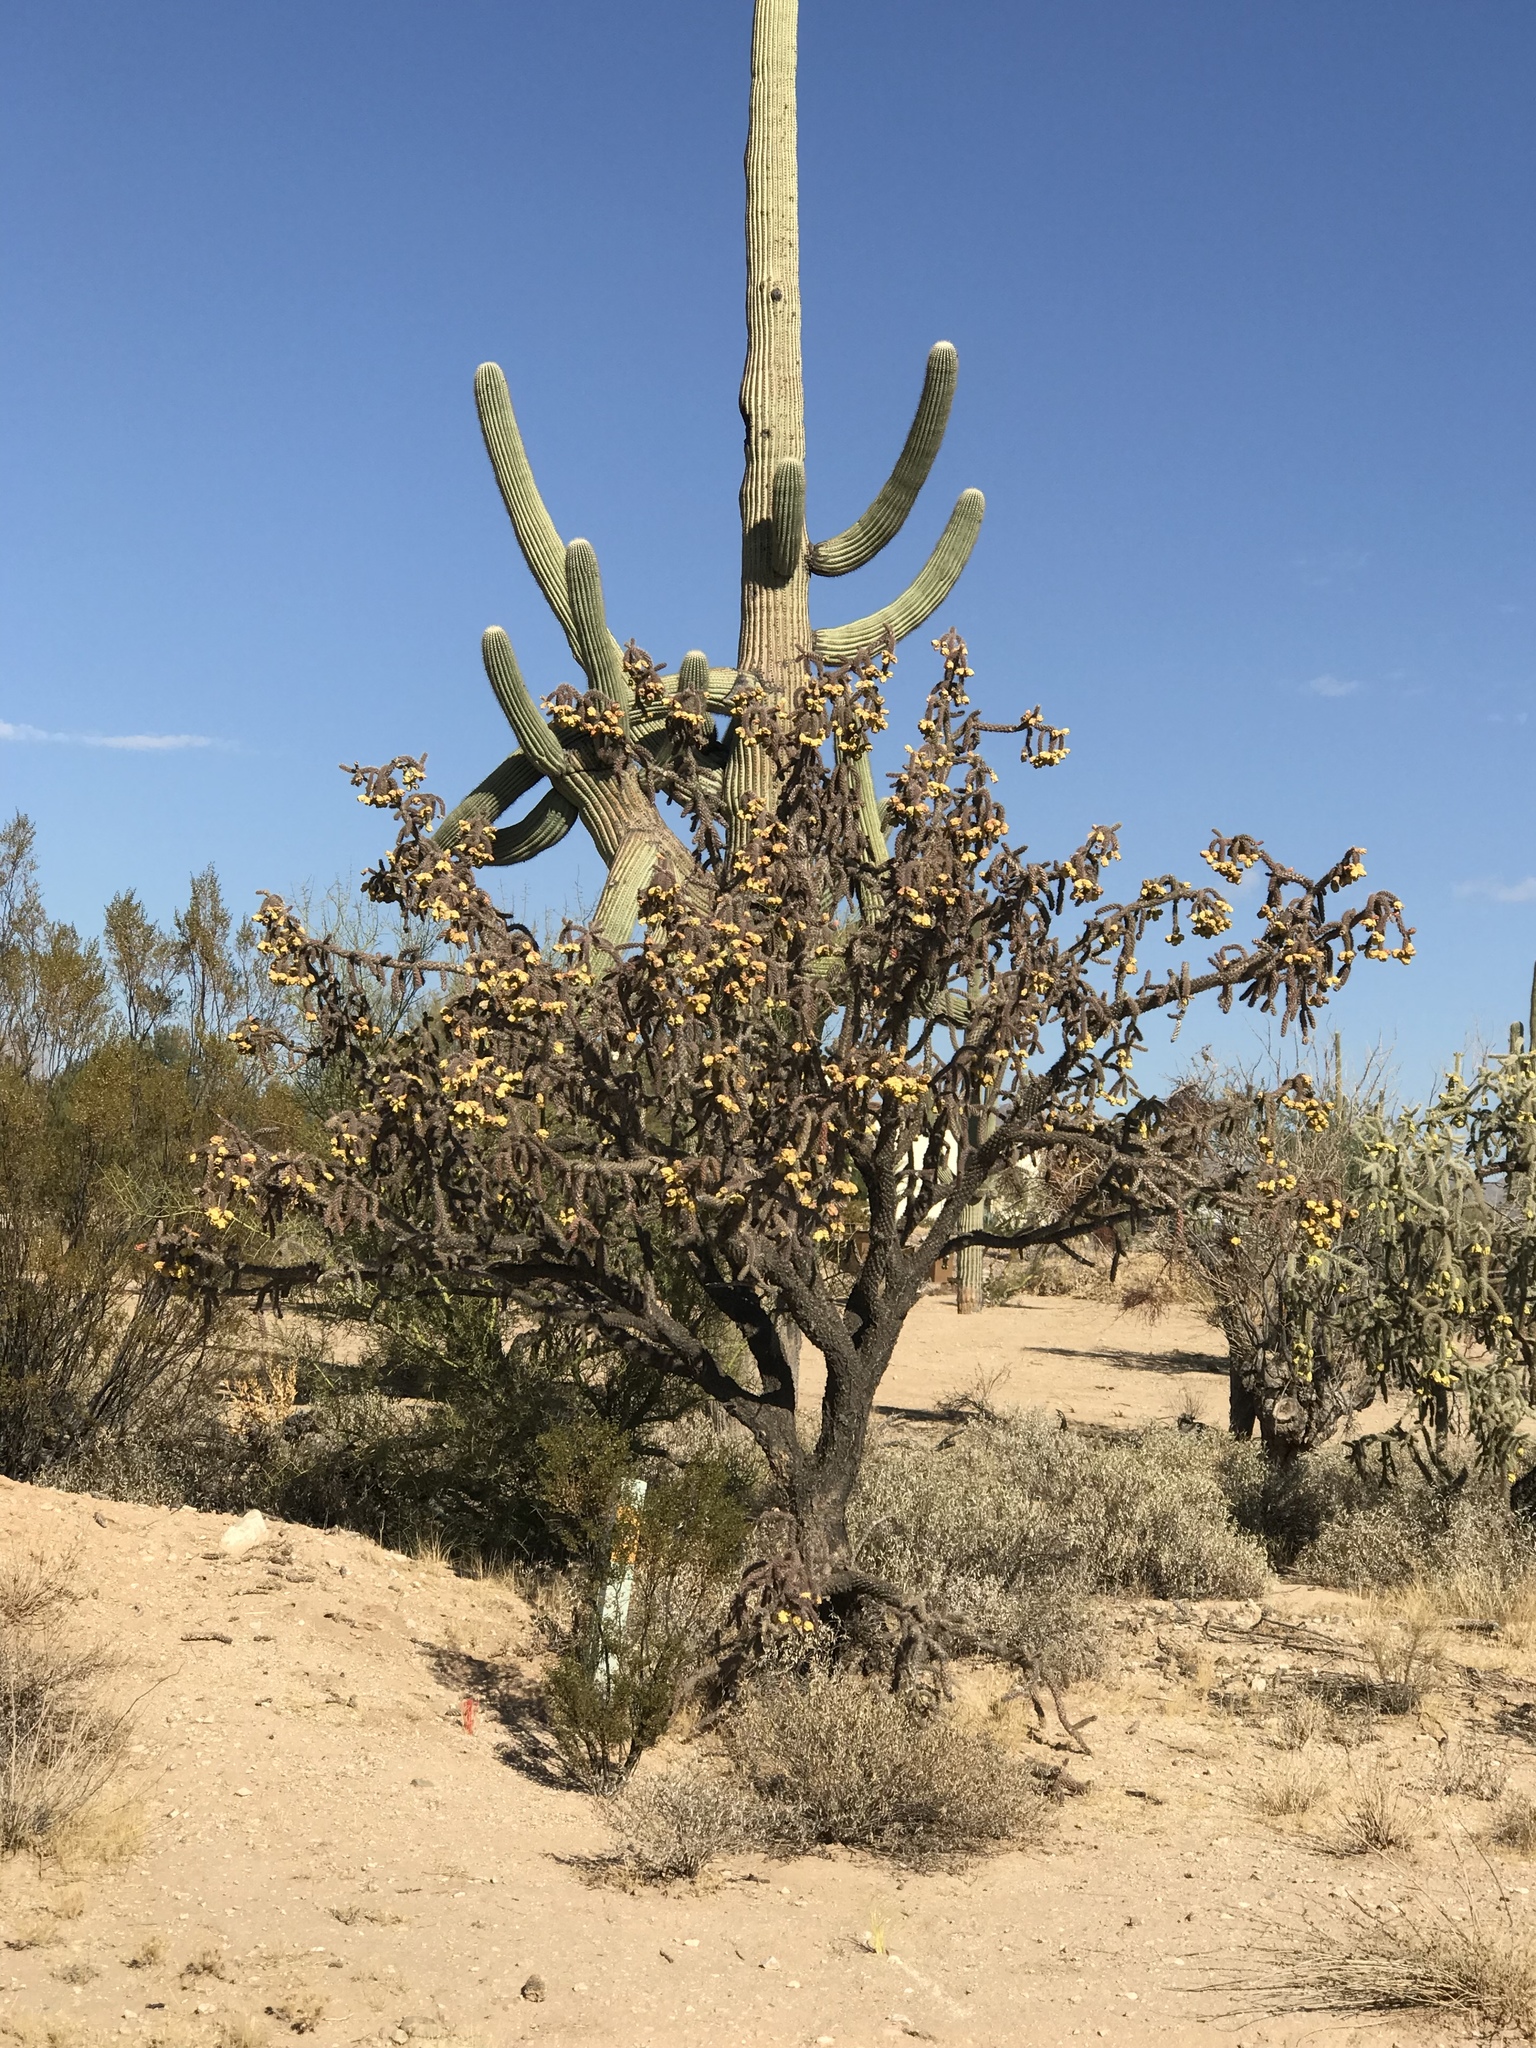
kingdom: Plantae
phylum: Tracheophyta
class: Magnoliopsida
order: Caryophyllales
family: Cactaceae
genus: Cylindropuntia
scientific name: Cylindropuntia imbricata
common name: Candelabrum cactus
